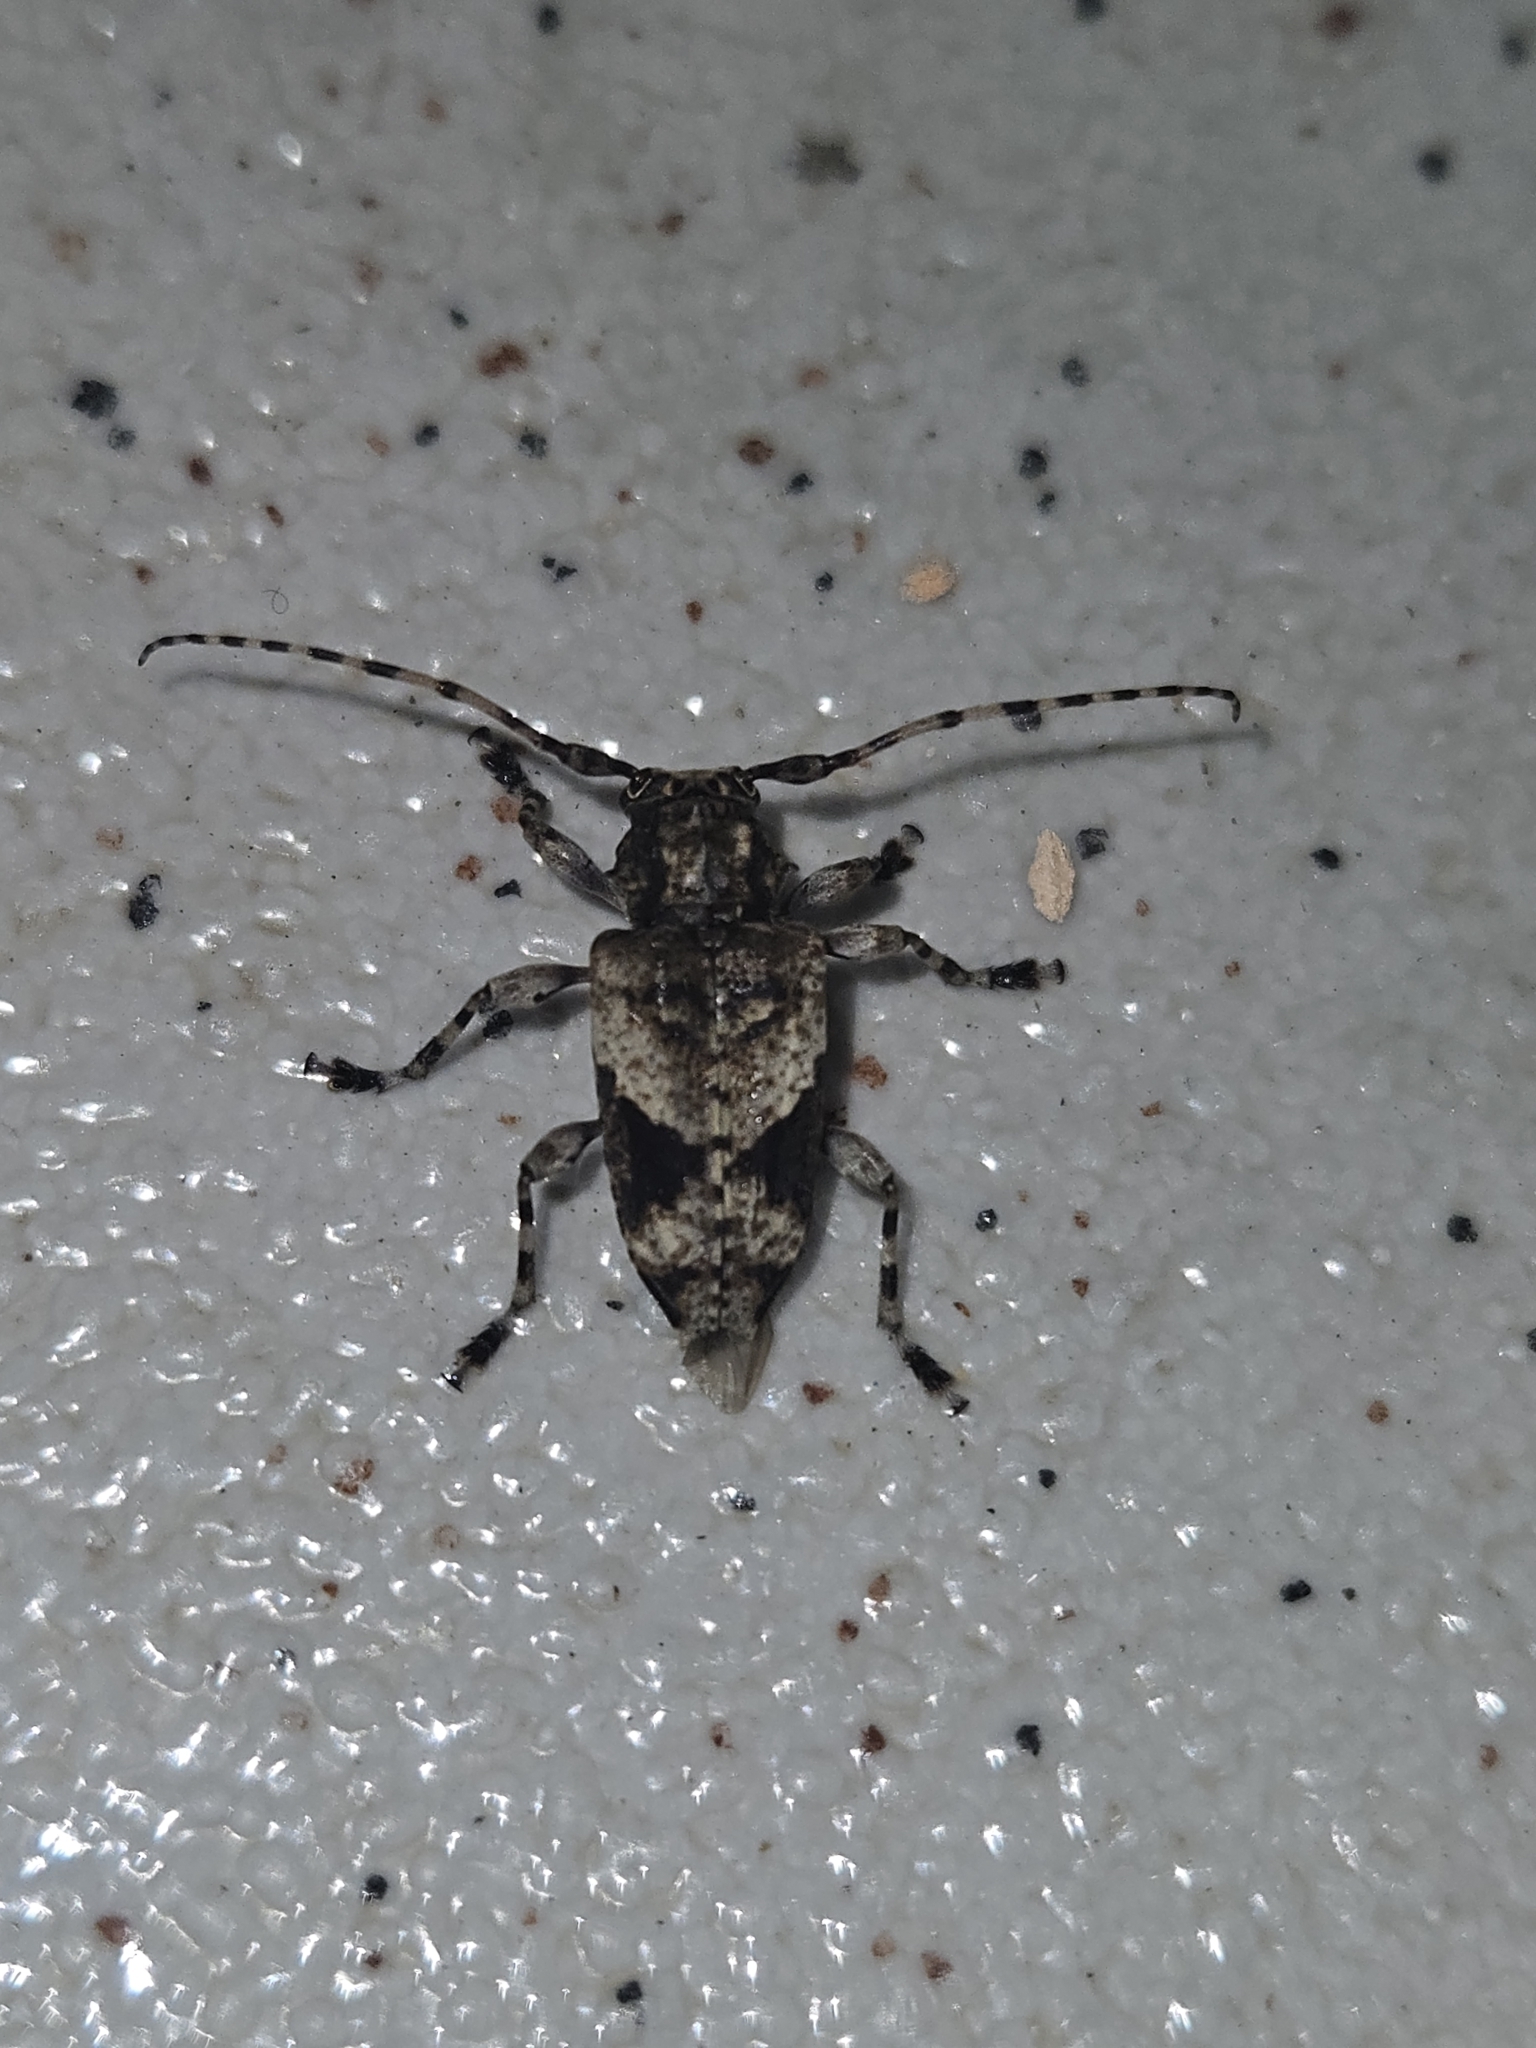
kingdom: Animalia
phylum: Arthropoda
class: Insecta
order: Coleoptera
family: Cerambycidae
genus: Psapharochrus
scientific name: Psapharochrus jaspideus
